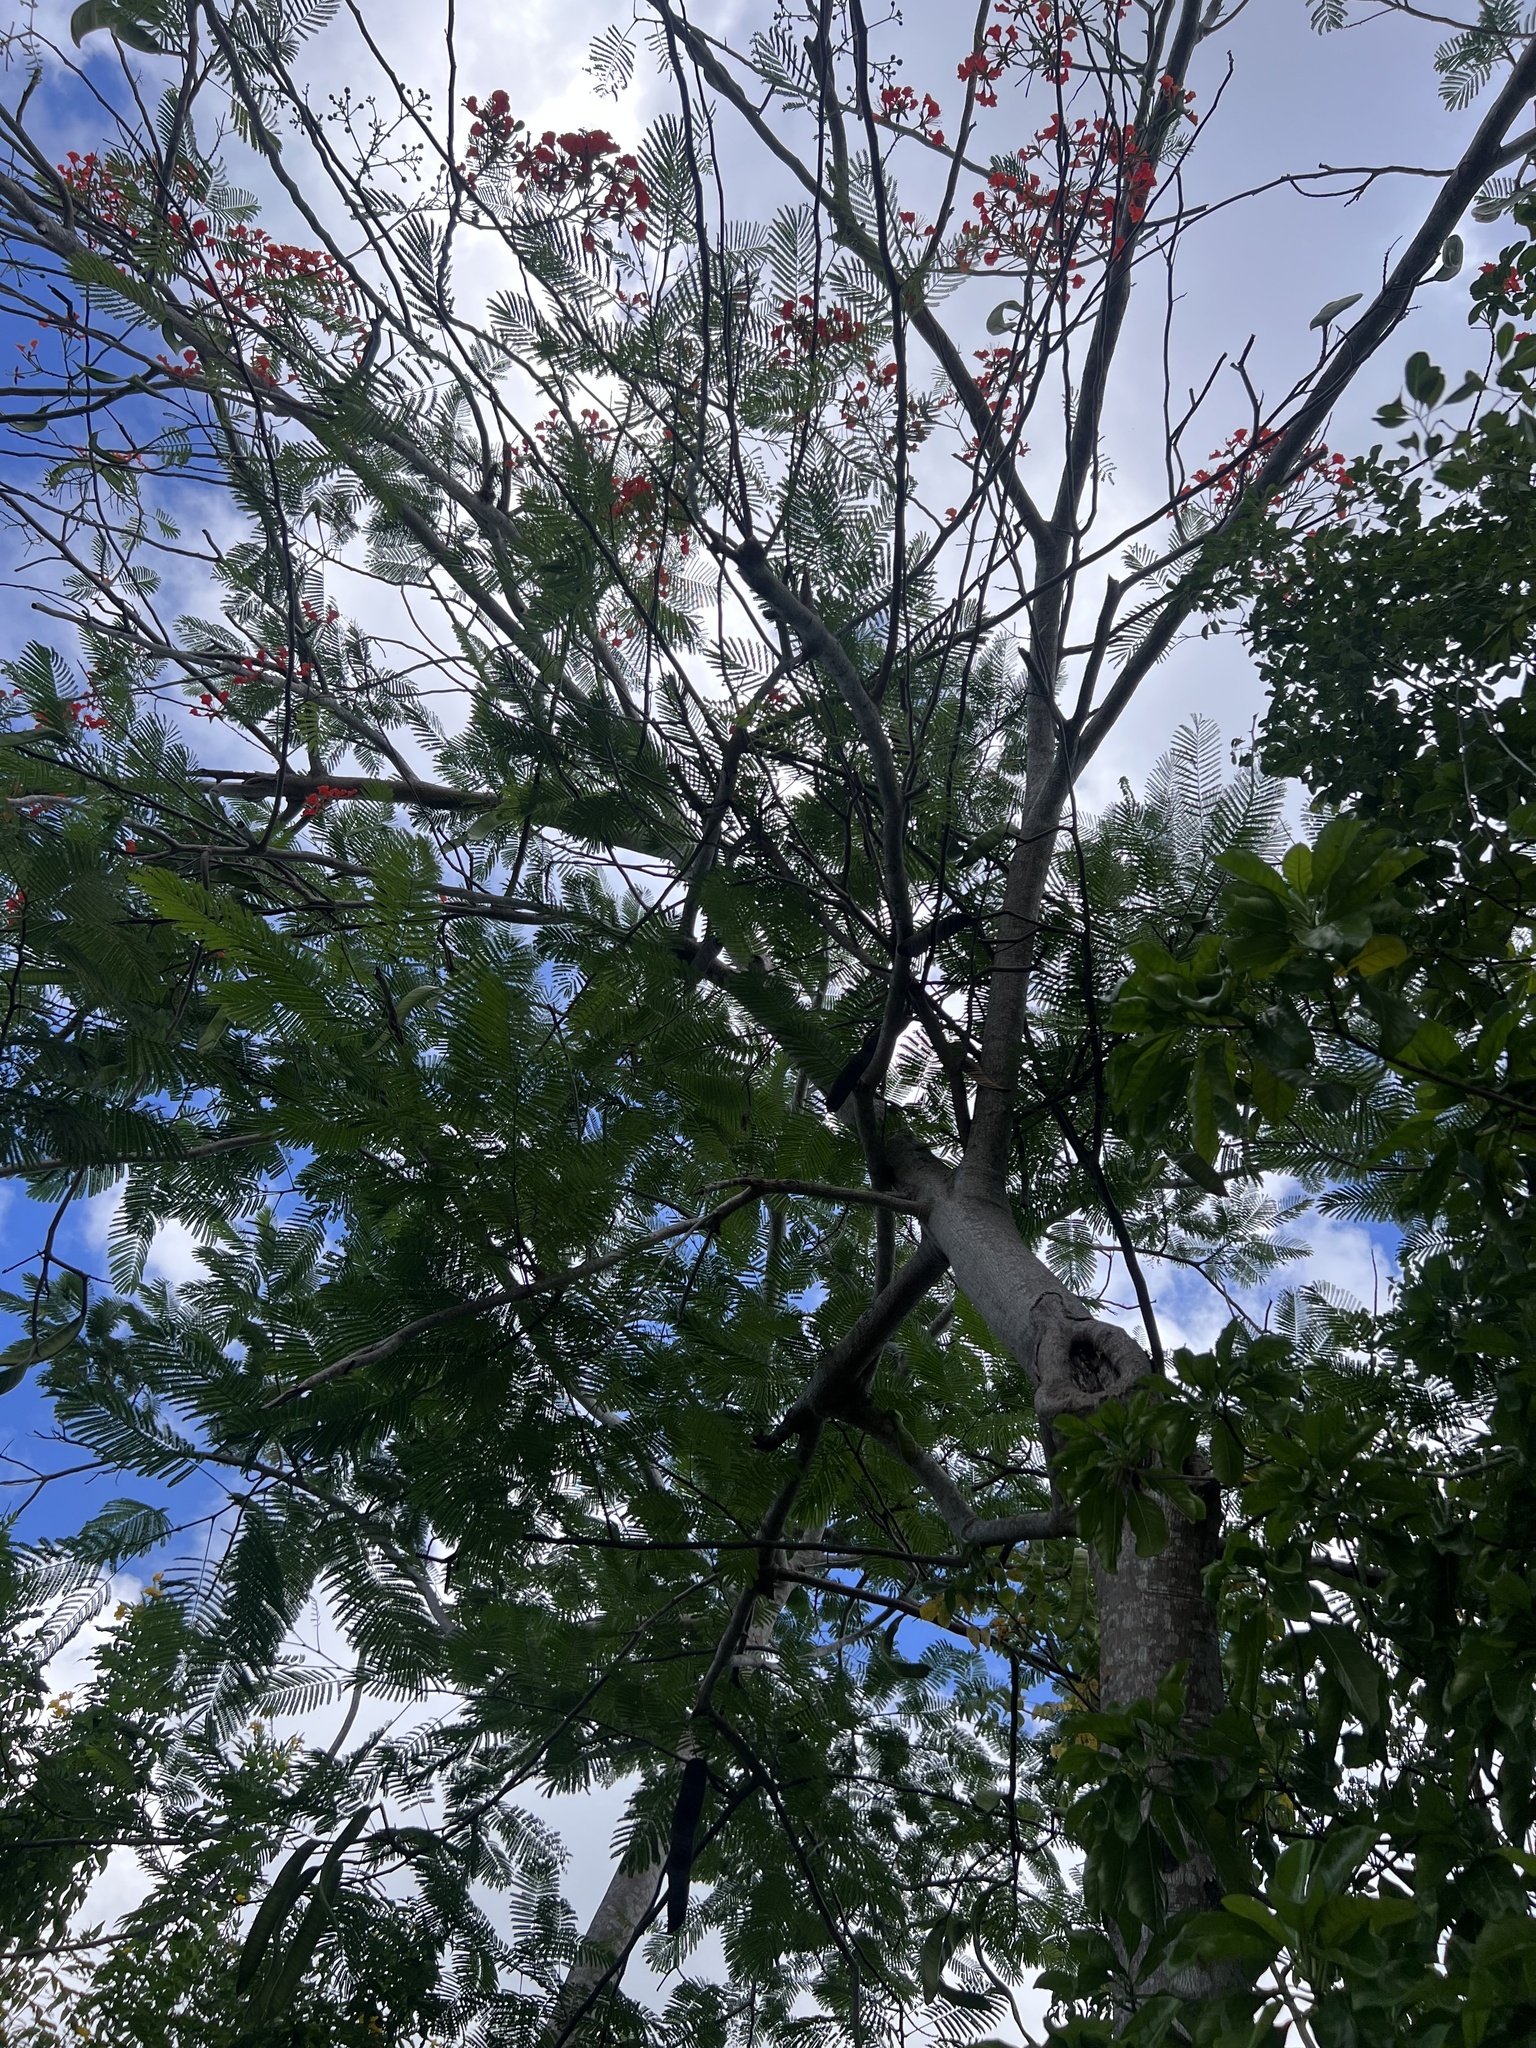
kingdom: Plantae
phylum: Tracheophyta
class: Magnoliopsida
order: Fabales
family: Fabaceae
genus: Delonix
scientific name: Delonix regia
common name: Royal poinciana
